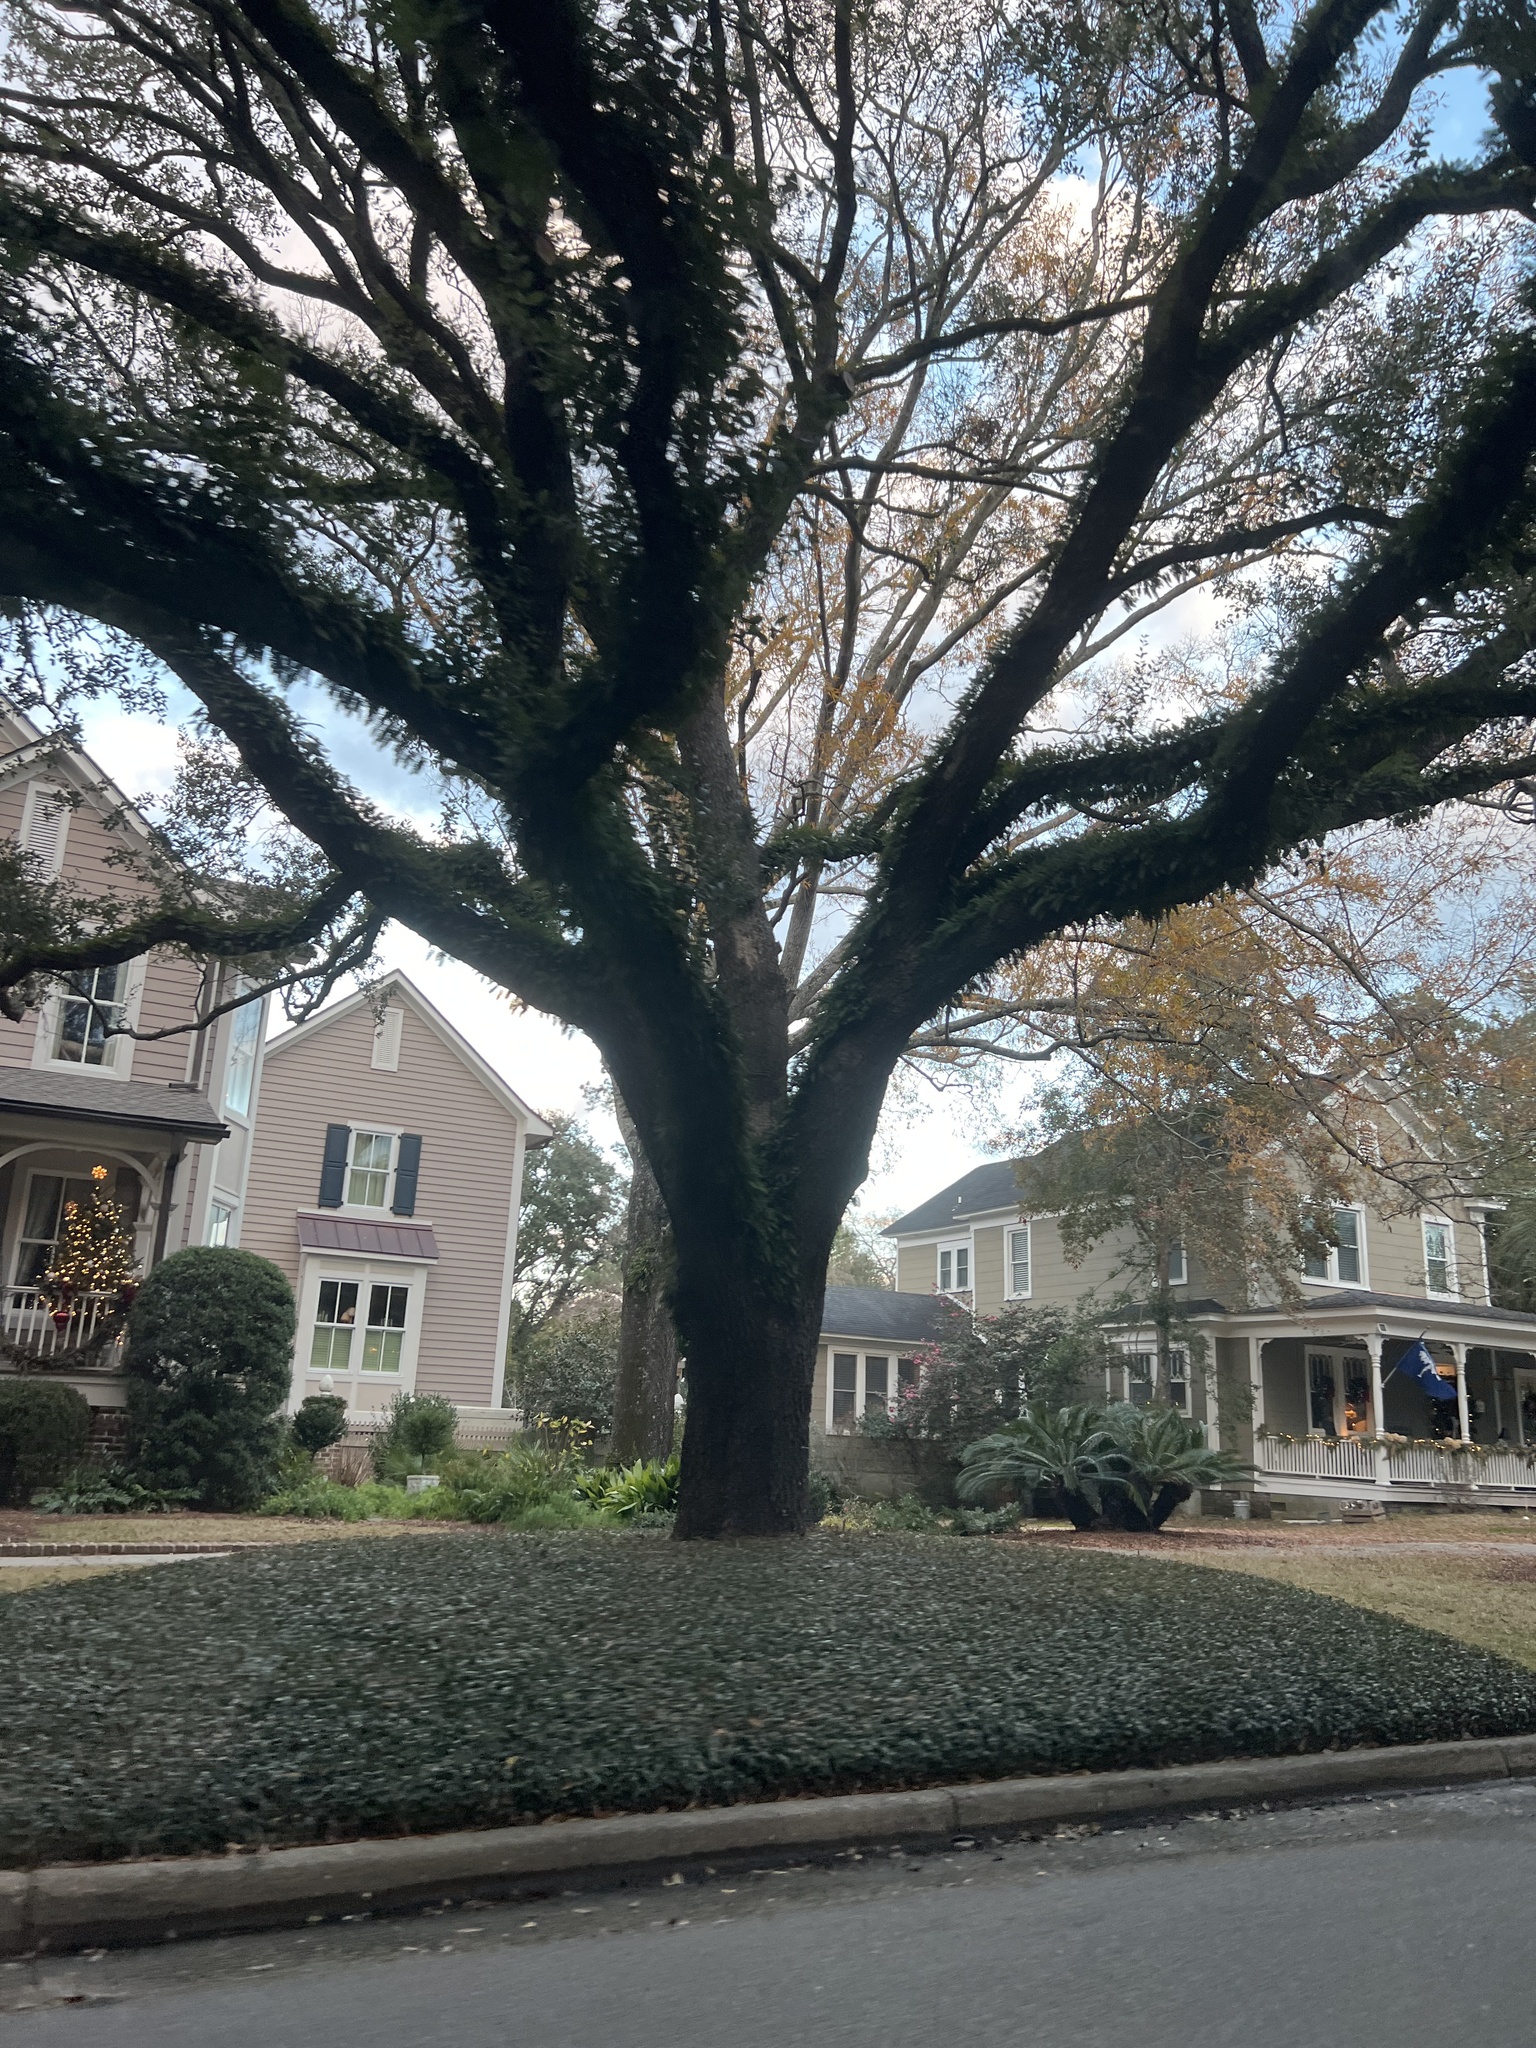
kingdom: Plantae
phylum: Tracheophyta
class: Polypodiopsida
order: Polypodiales
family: Polypodiaceae
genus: Pleopeltis
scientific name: Pleopeltis michauxiana
